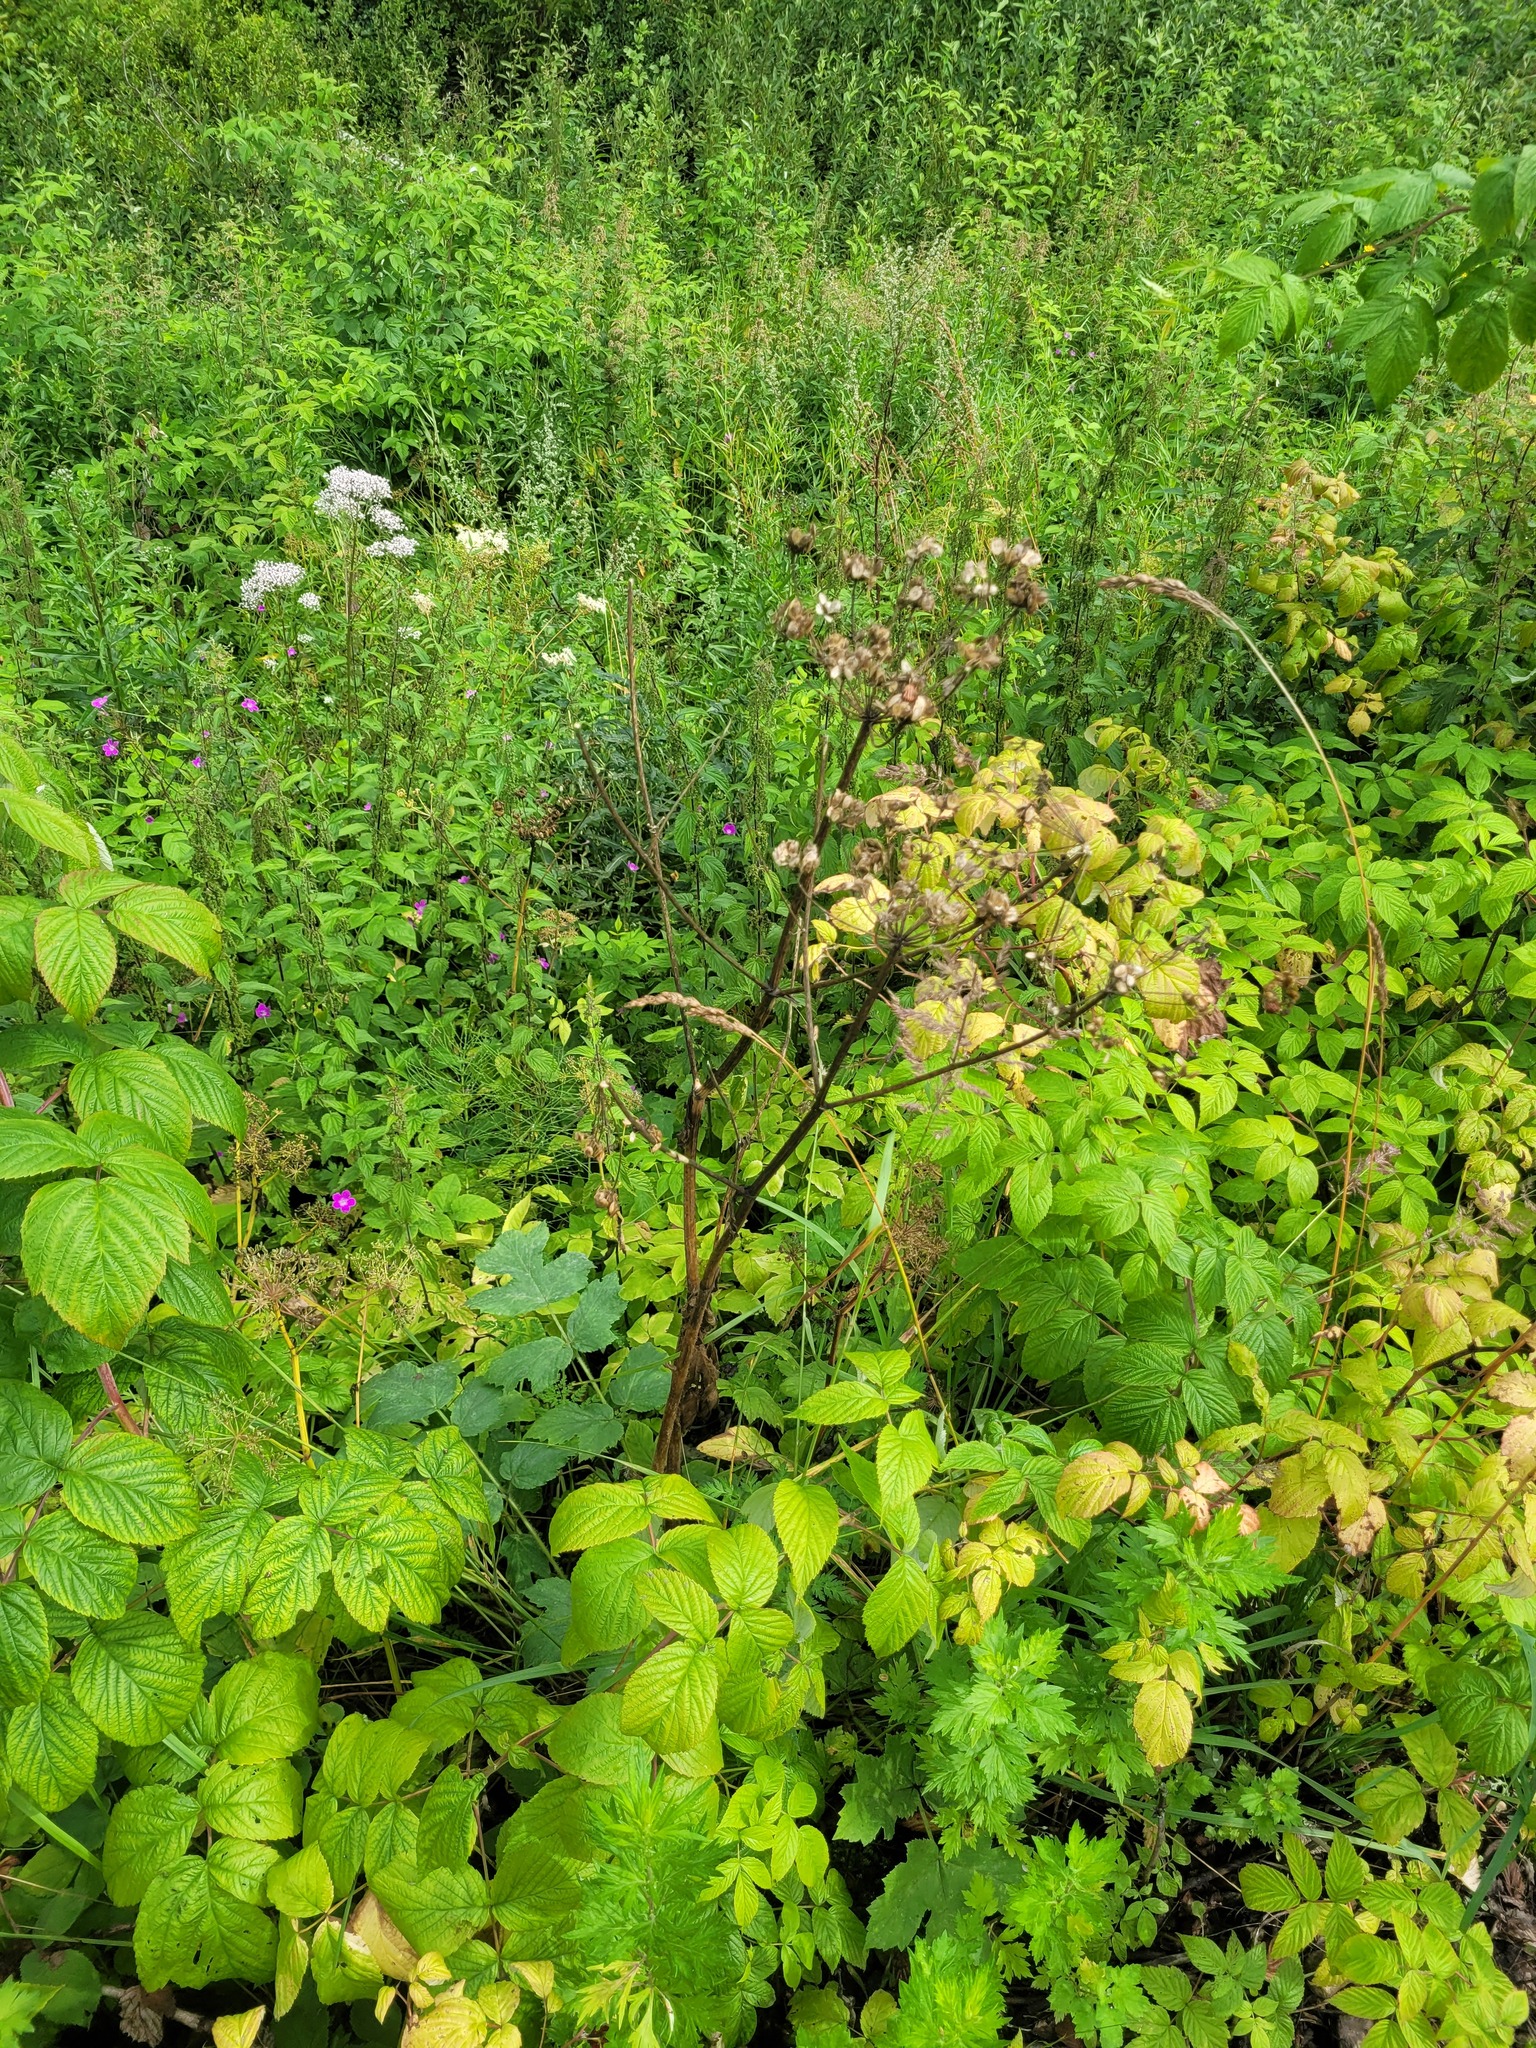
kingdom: Plantae
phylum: Tracheophyta
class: Magnoliopsida
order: Apiales
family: Apiaceae
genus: Heracleum
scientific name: Heracleum sphondylium
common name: Hogweed
